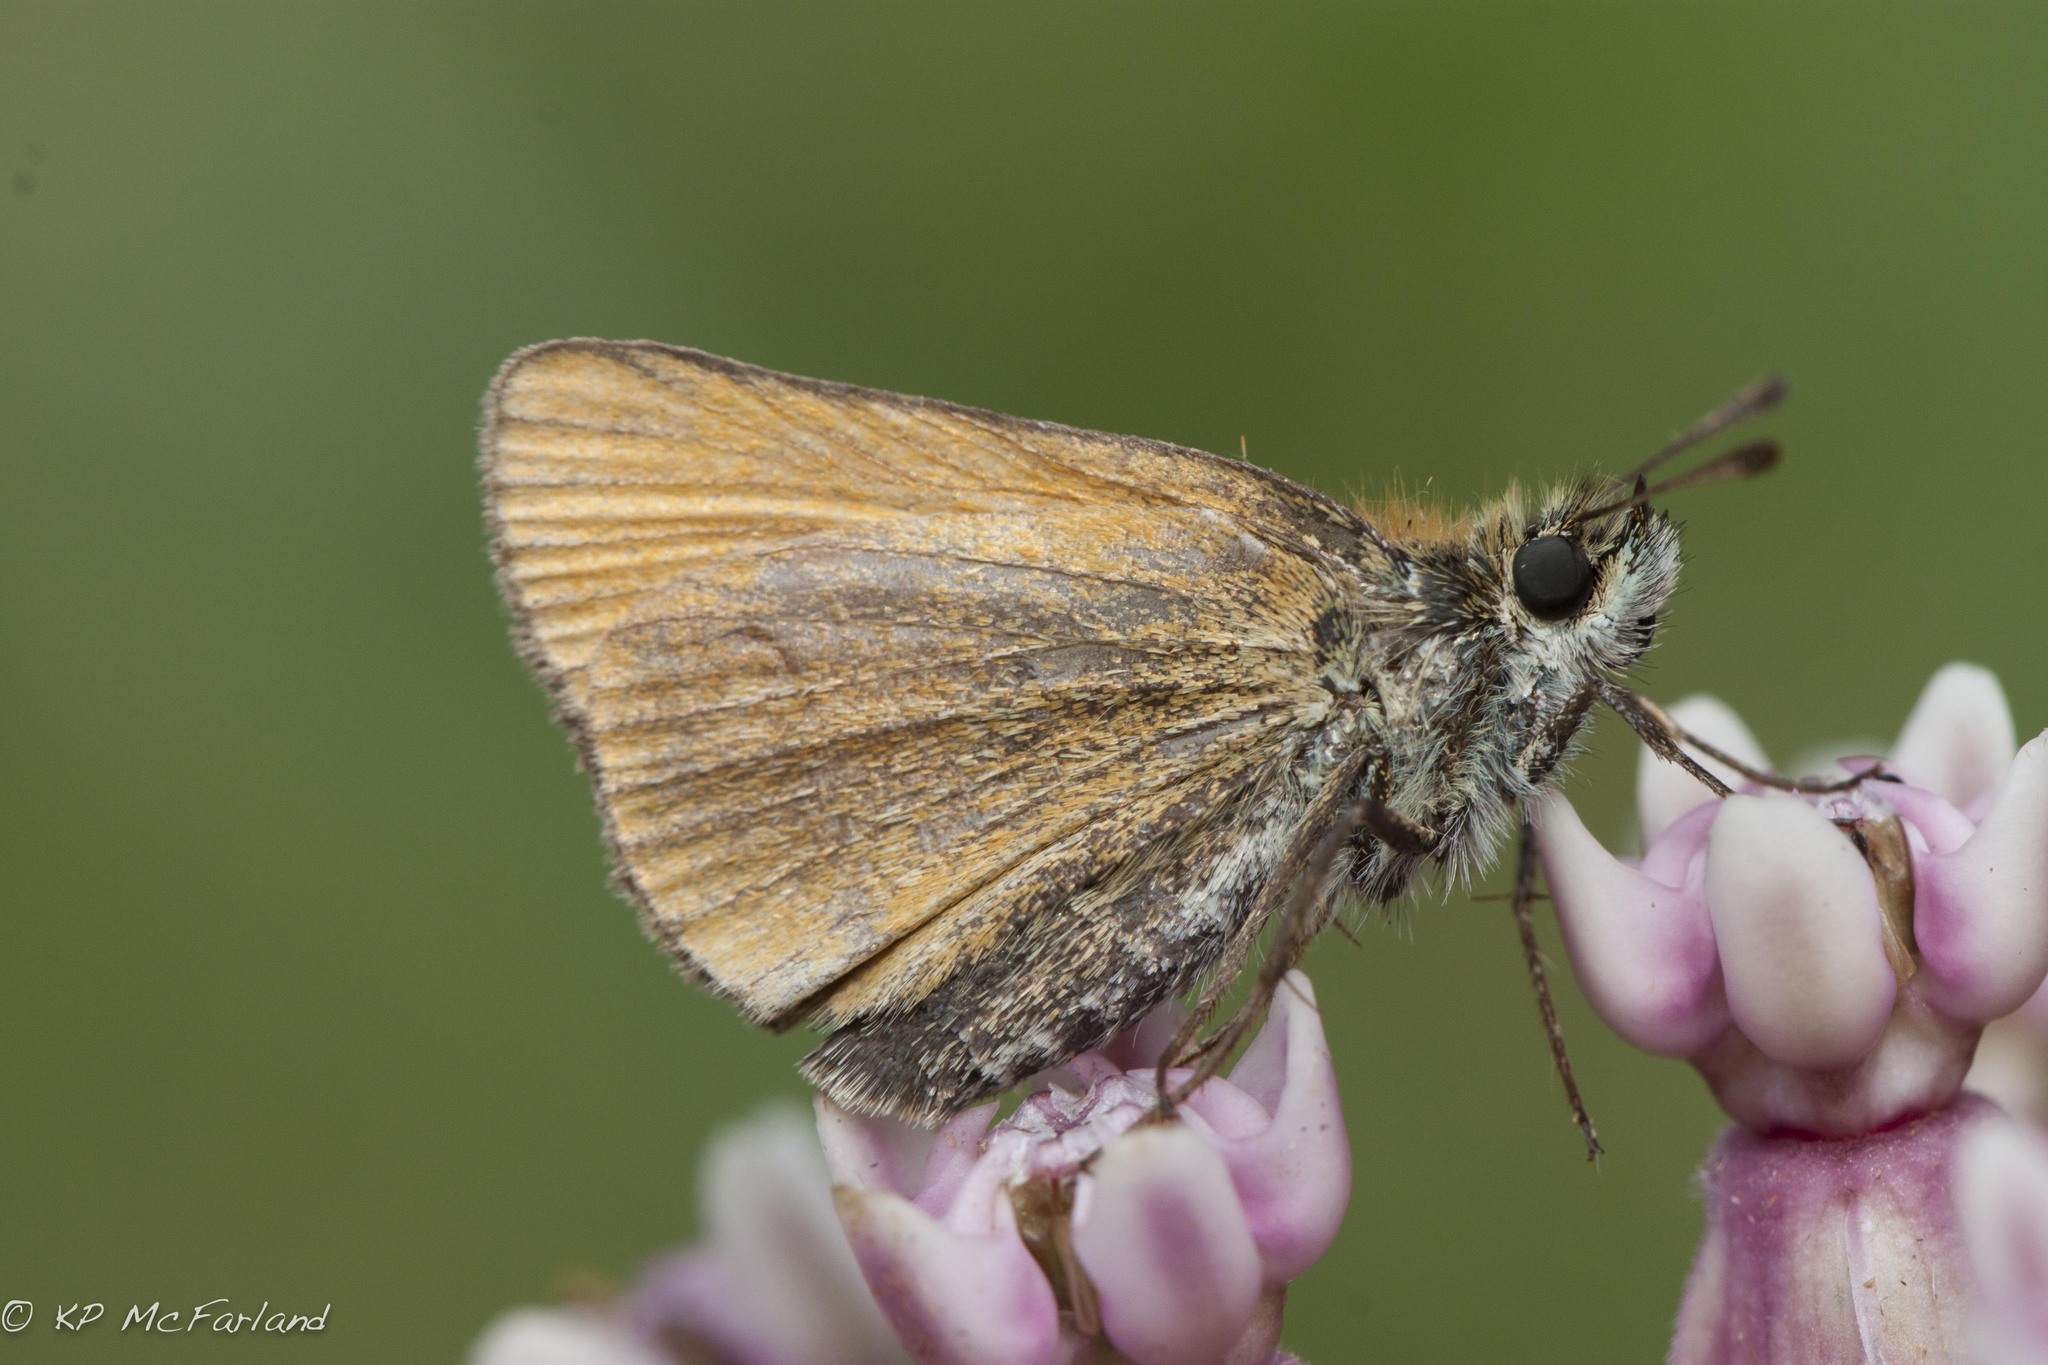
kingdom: Animalia
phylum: Arthropoda
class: Insecta
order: Lepidoptera
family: Hesperiidae
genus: Thymelicus
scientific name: Thymelicus lineola
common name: Essex skipper
